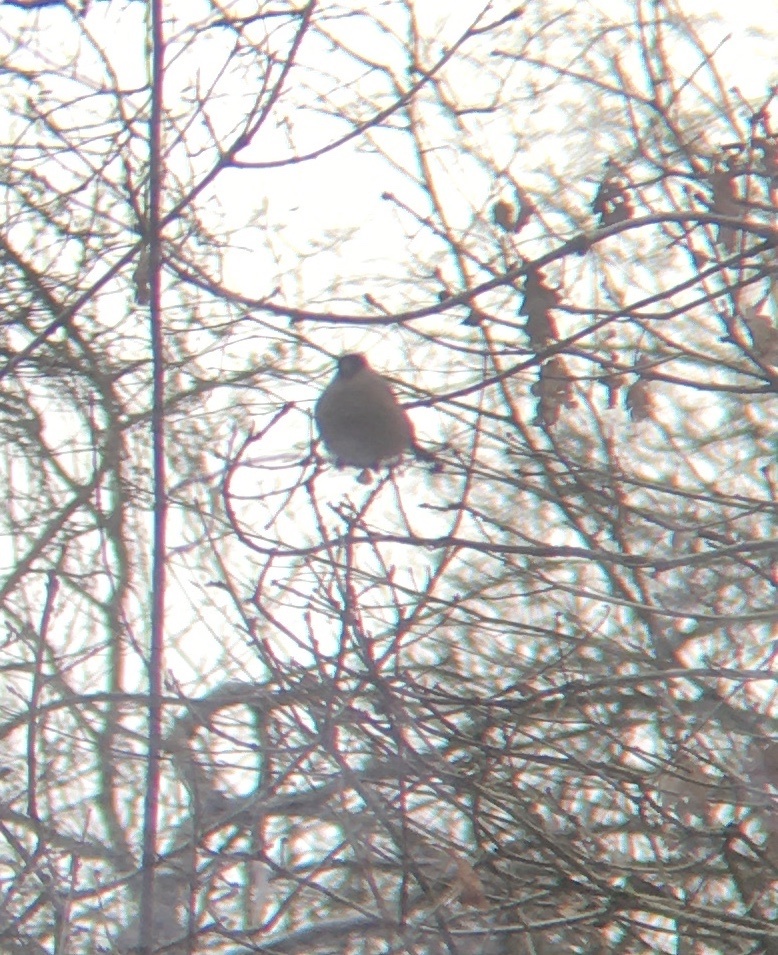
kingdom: Animalia
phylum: Chordata
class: Aves
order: Passeriformes
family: Fringillidae
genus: Pyrrhula
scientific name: Pyrrhula pyrrhula
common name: Eurasian bullfinch
